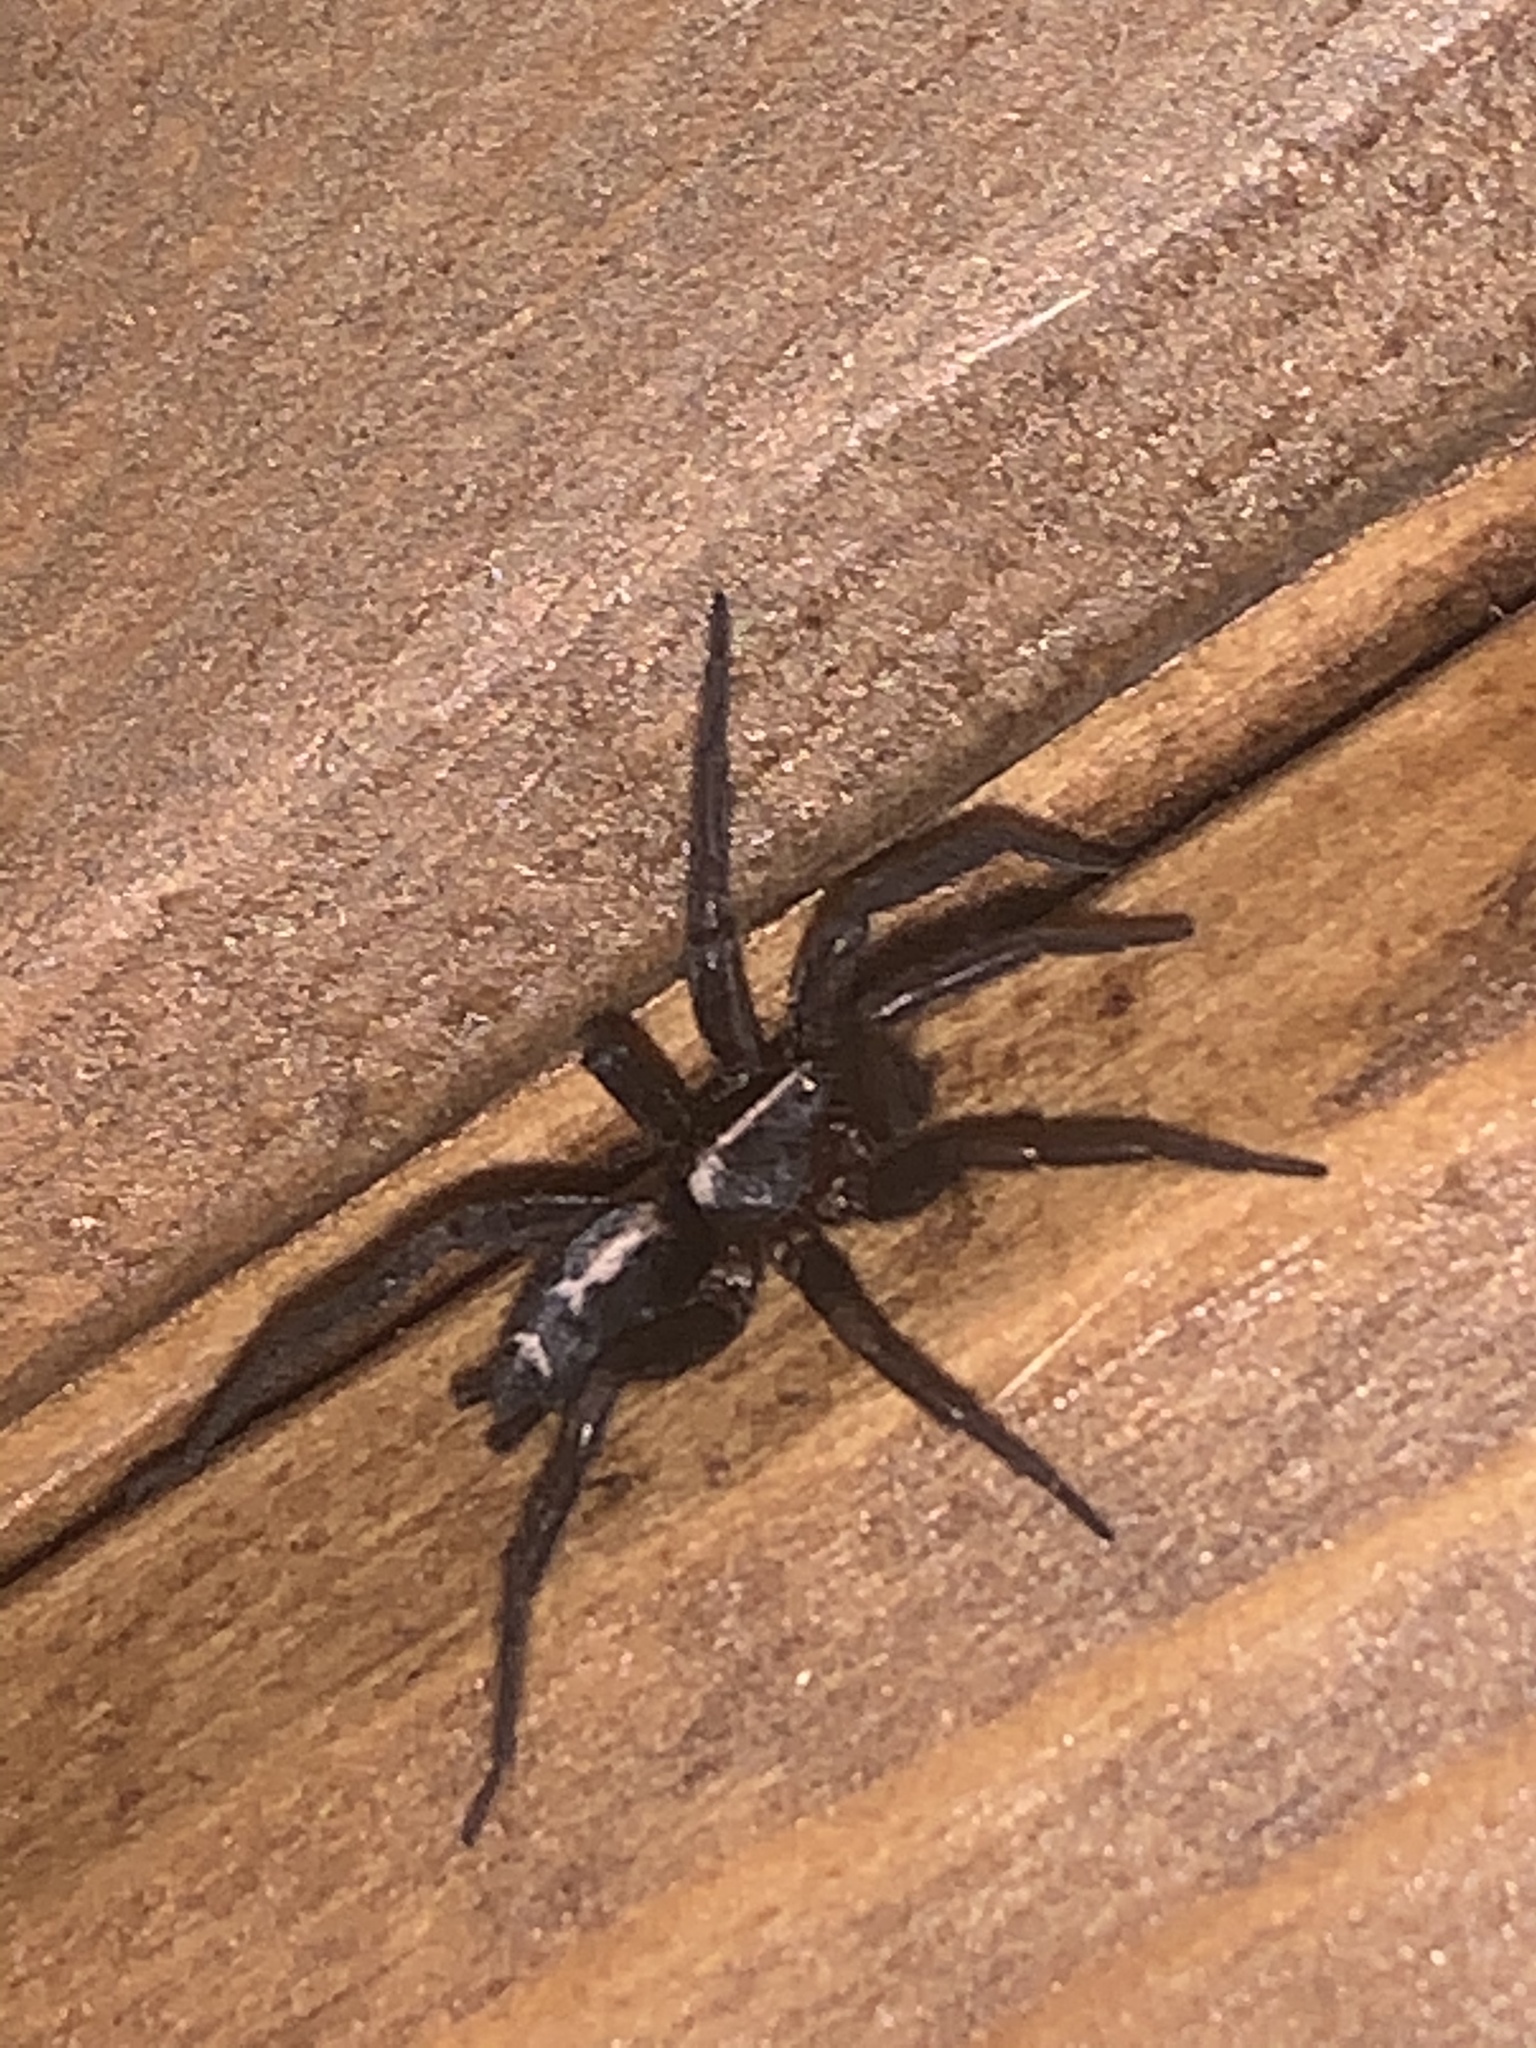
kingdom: Animalia
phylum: Arthropoda
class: Arachnida
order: Araneae
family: Gnaphosidae
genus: Herpyllus
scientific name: Herpyllus propinquus
